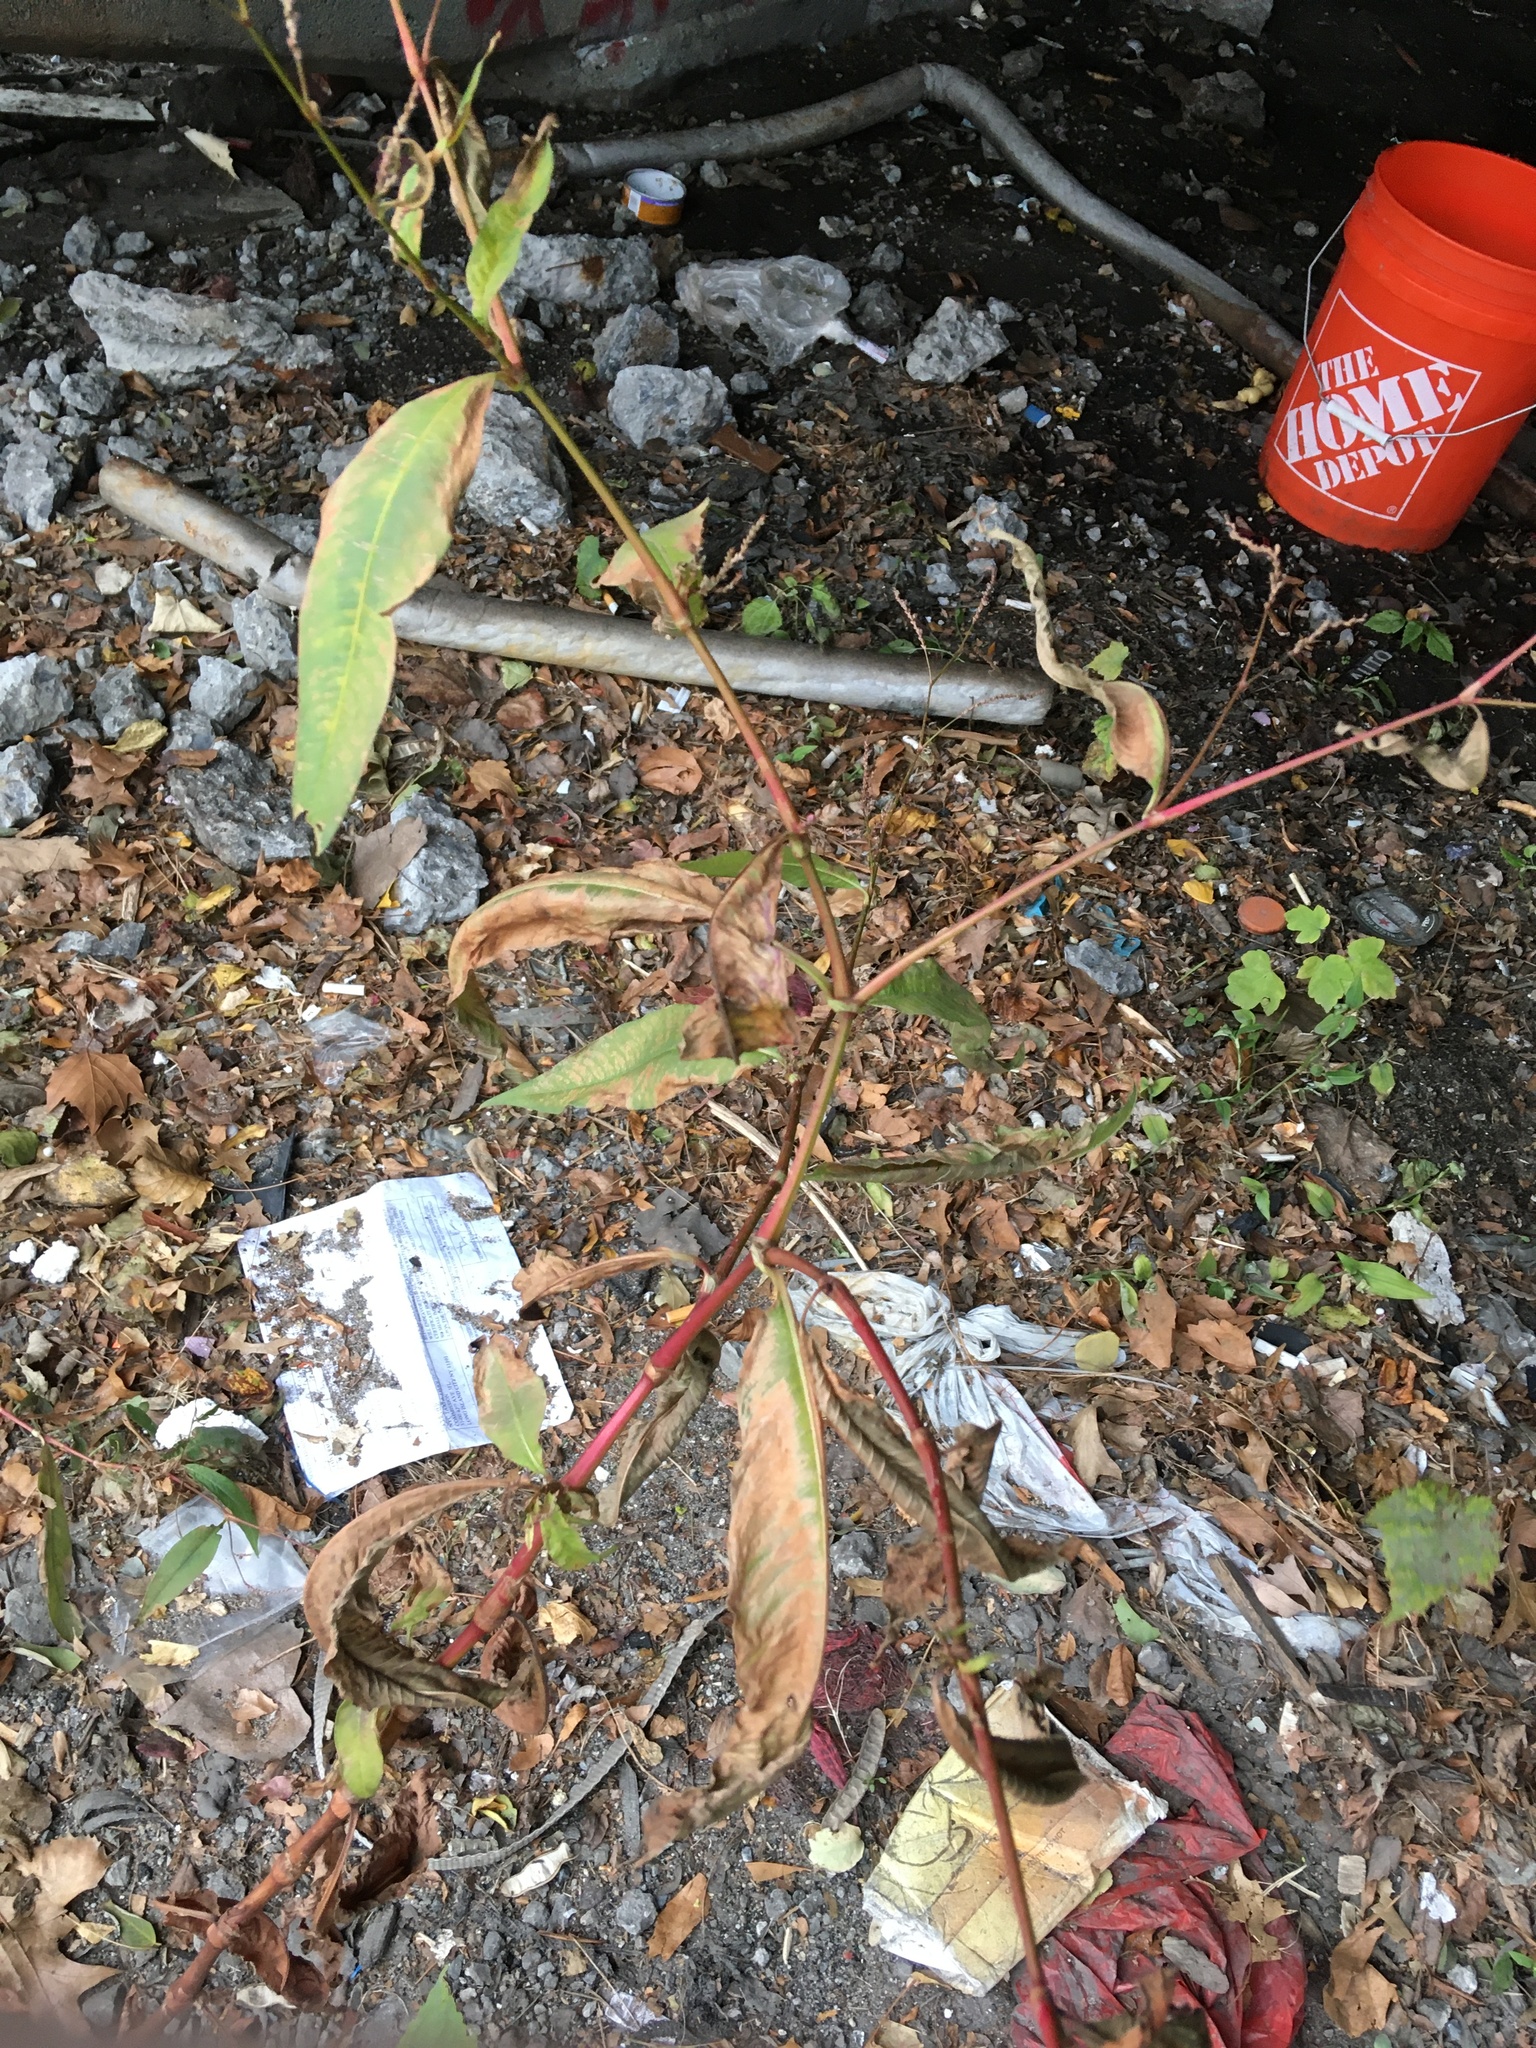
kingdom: Plantae
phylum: Tracheophyta
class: Magnoliopsida
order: Caryophyllales
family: Polygonaceae
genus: Persicaria
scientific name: Persicaria extremiorientalis
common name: Far-eastern smartweed
